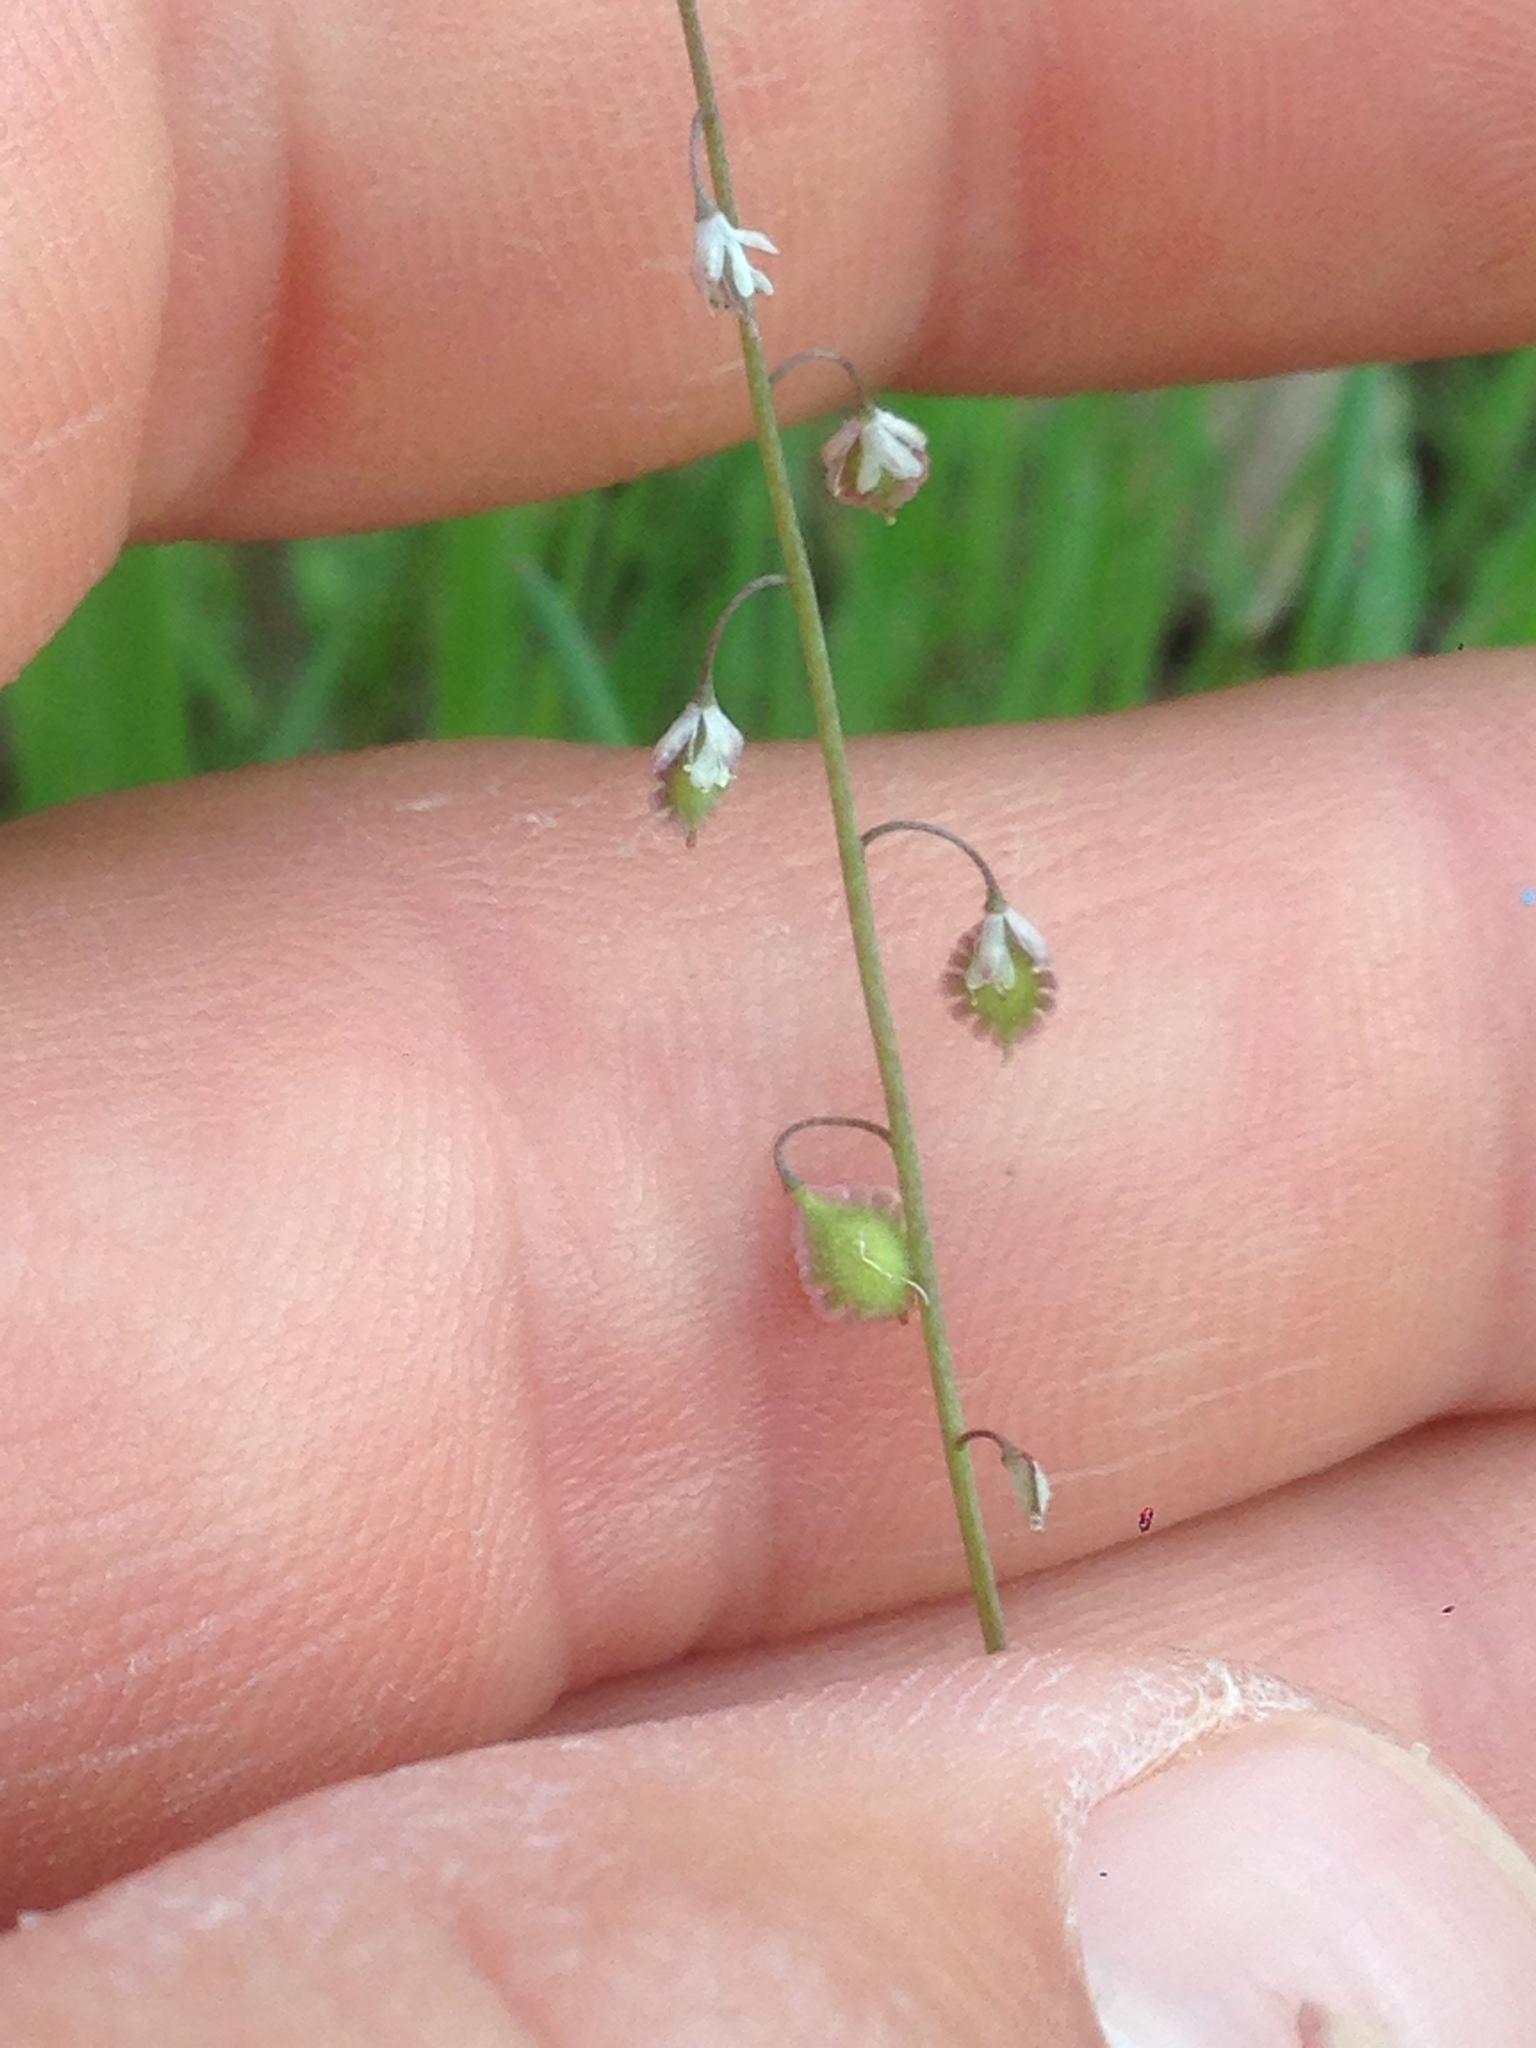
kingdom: Plantae
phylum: Tracheophyta
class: Magnoliopsida
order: Brassicales
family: Brassicaceae
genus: Thysanocarpus
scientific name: Thysanocarpus laciniatus
